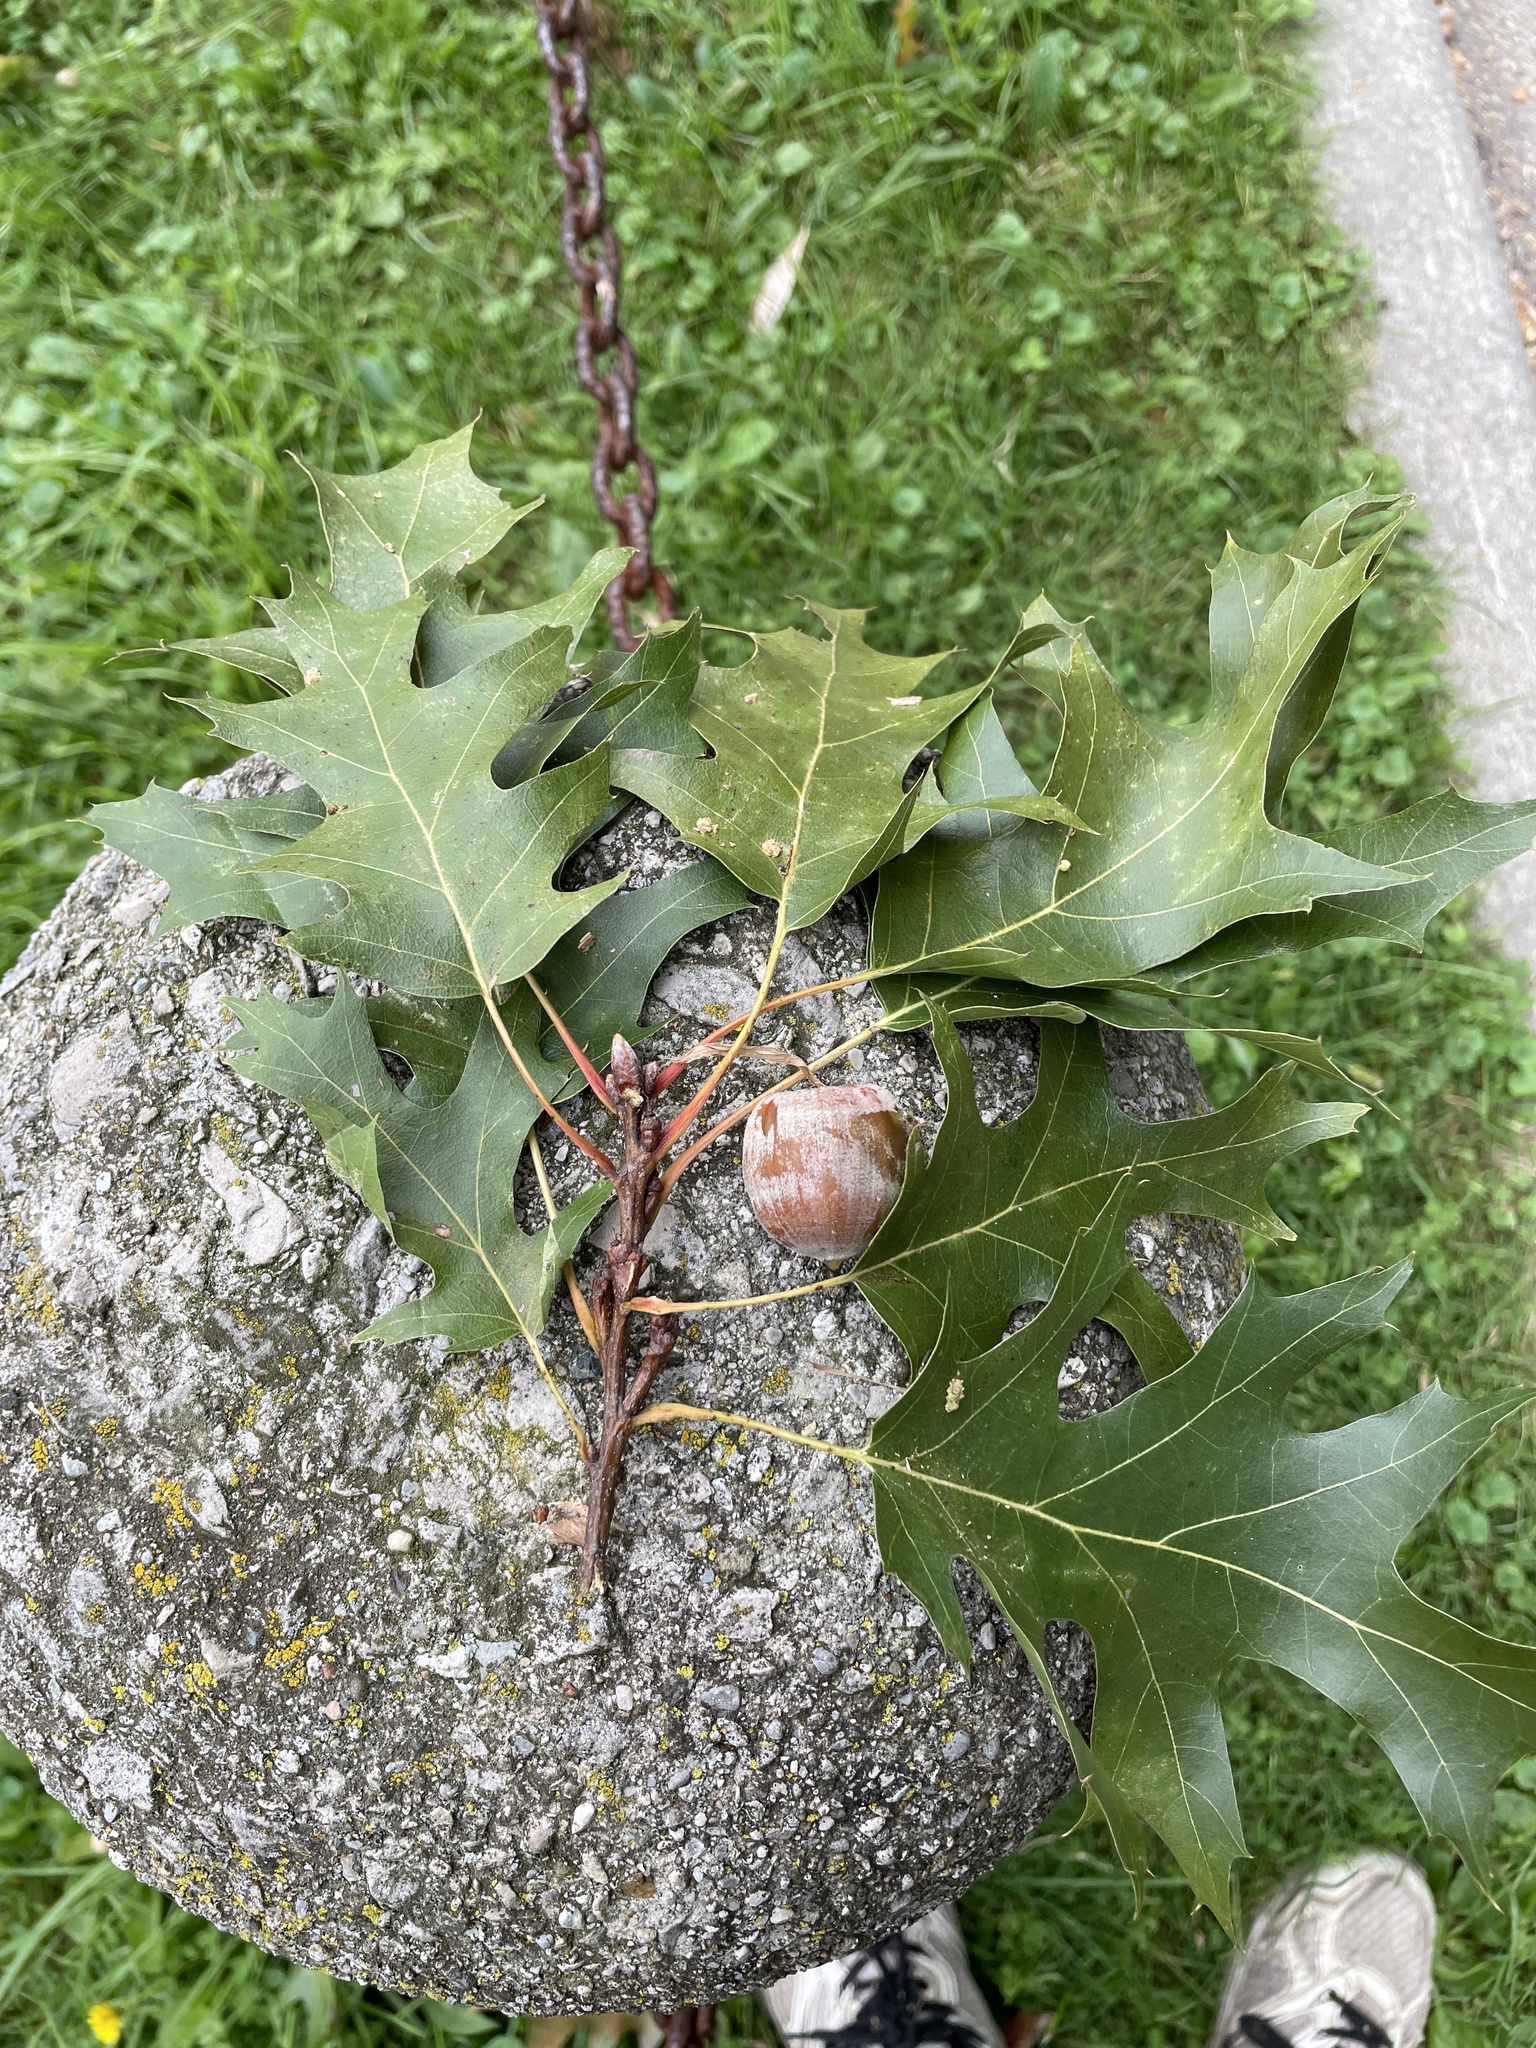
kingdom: Plantae
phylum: Tracheophyta
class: Magnoliopsida
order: Fagales
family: Fagaceae
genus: Quercus
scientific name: Quercus rubra
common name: Red oak
